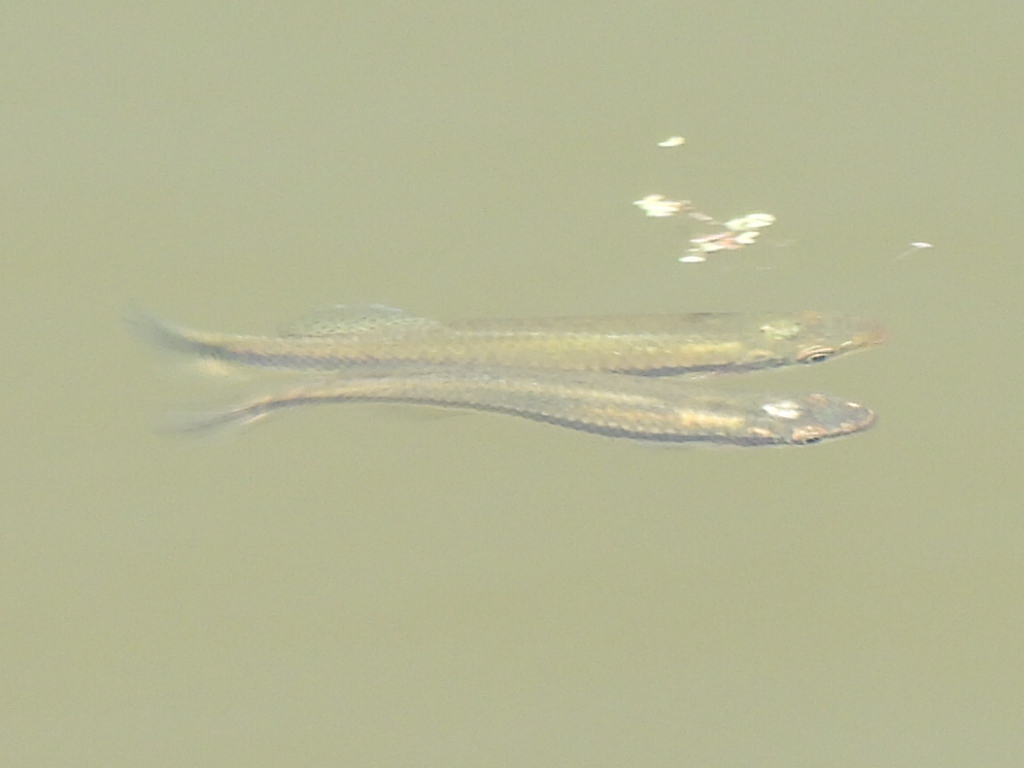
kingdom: Animalia
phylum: Chordata
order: Cyprinodontiformes
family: Fundulidae
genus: Fundulus
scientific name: Fundulus notatus
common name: Blackstripe topminnow
